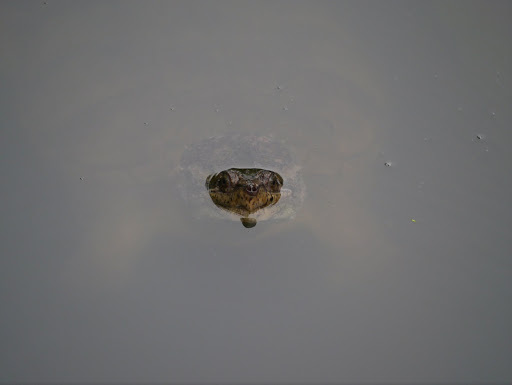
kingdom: Animalia
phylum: Chordata
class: Testudines
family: Chelydridae
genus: Chelydra
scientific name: Chelydra serpentina
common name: Common snapping turtle
